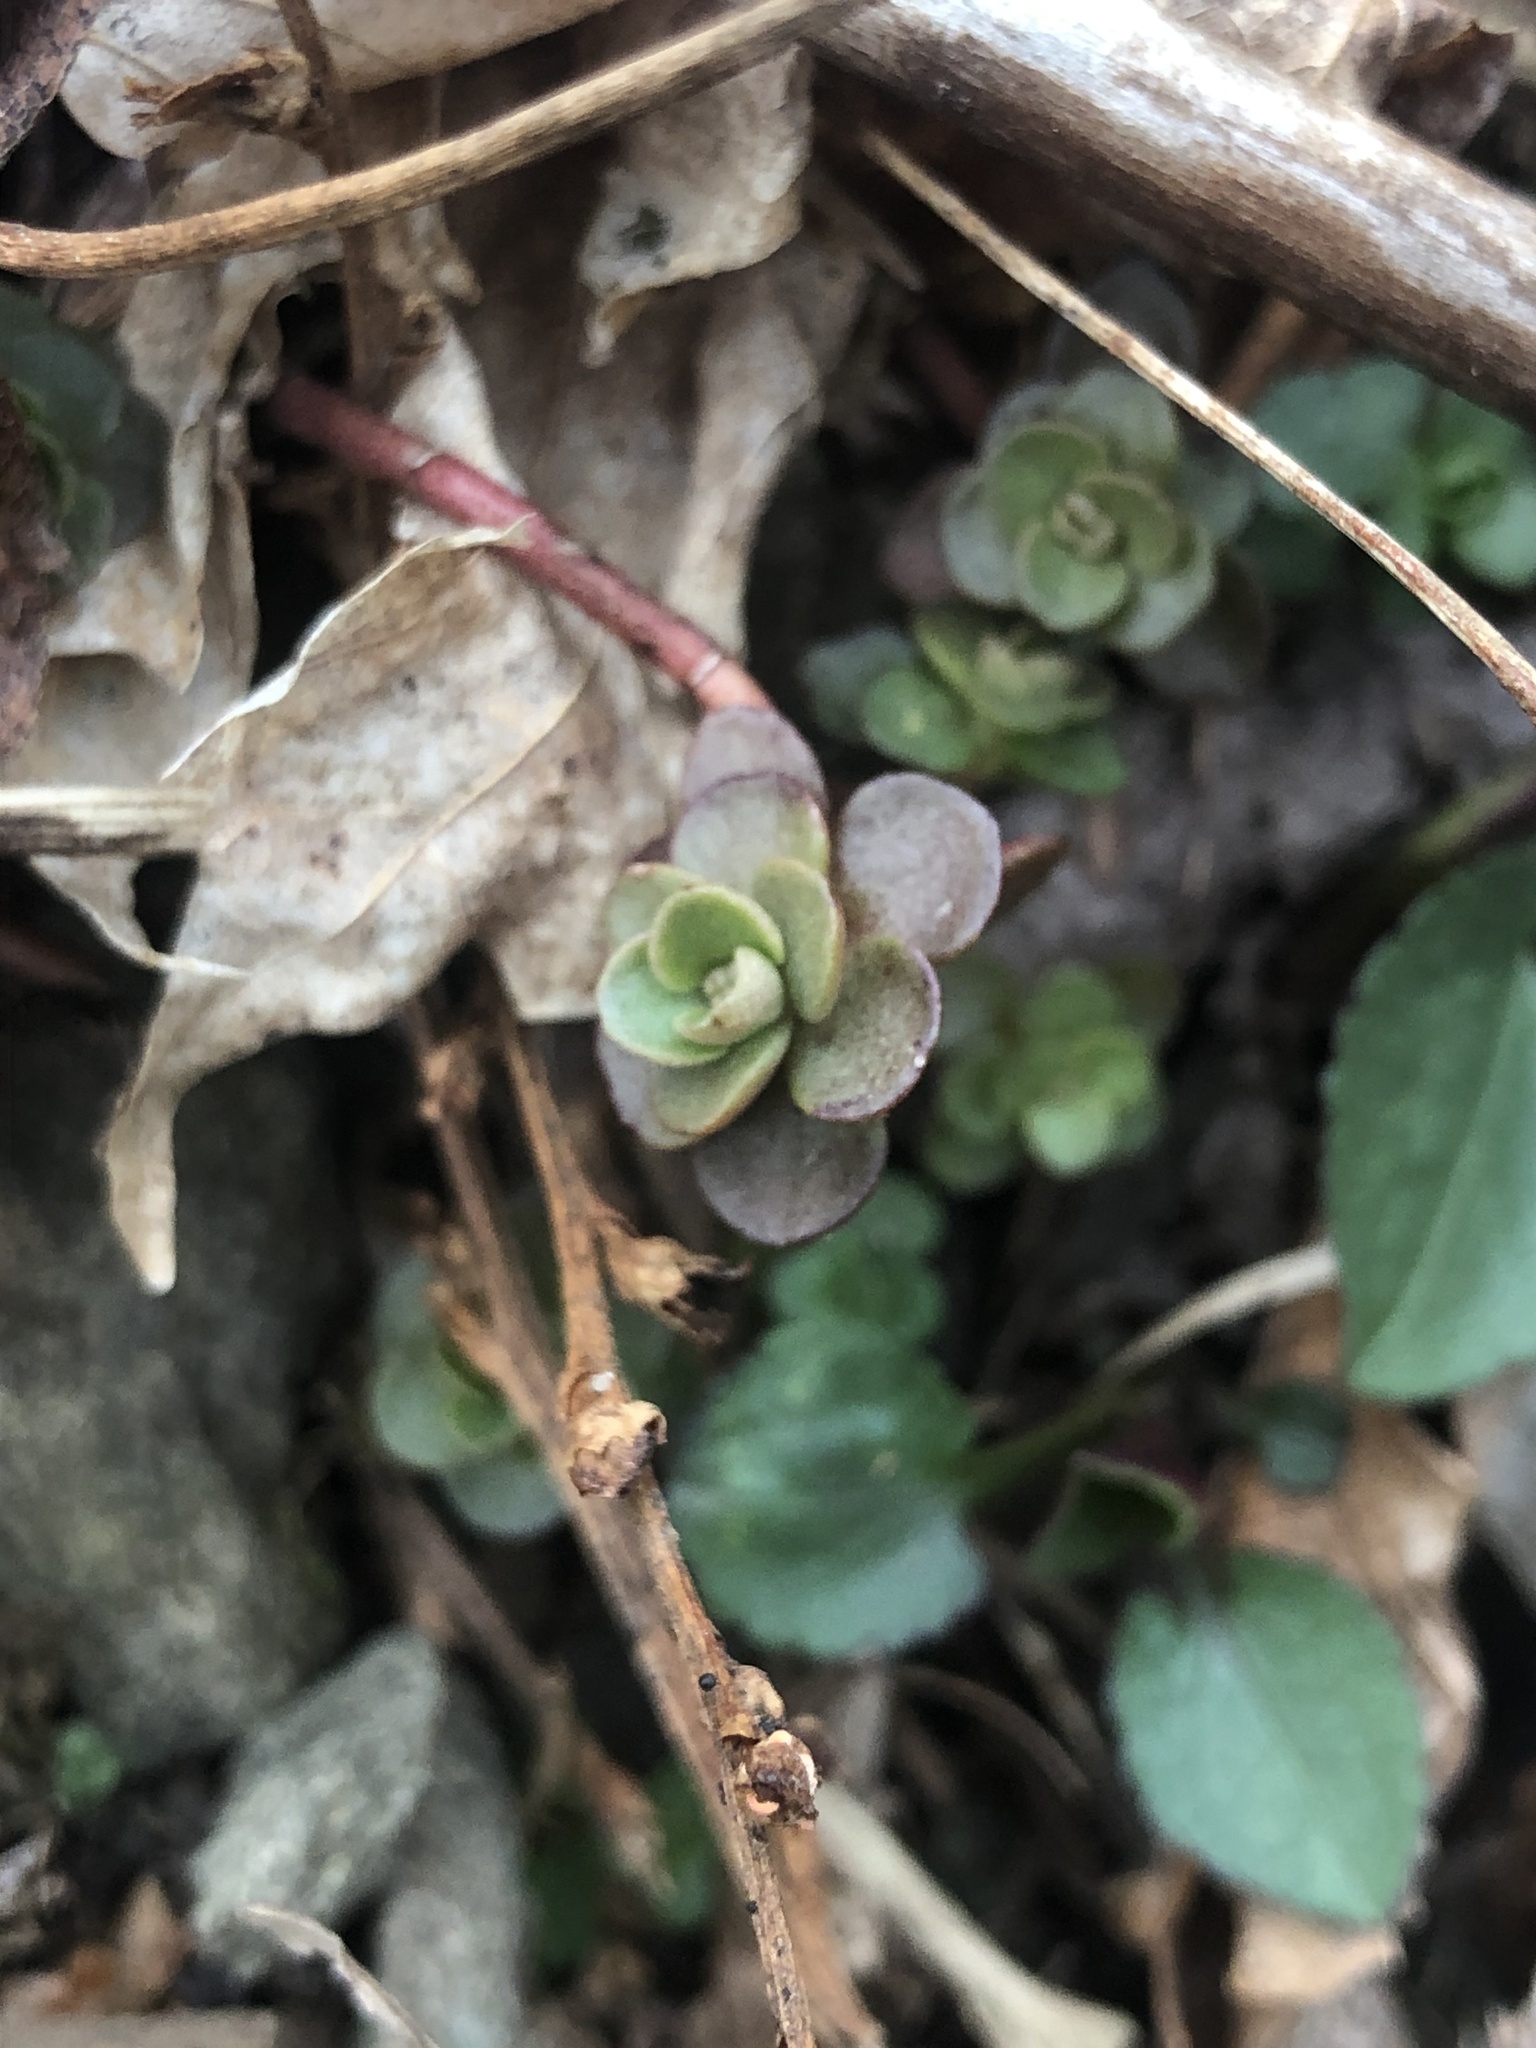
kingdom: Plantae
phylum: Tracheophyta
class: Magnoliopsida
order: Saxifragales
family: Crassulaceae
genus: Sedum
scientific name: Sedum ternatum
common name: Wild stonecrop
